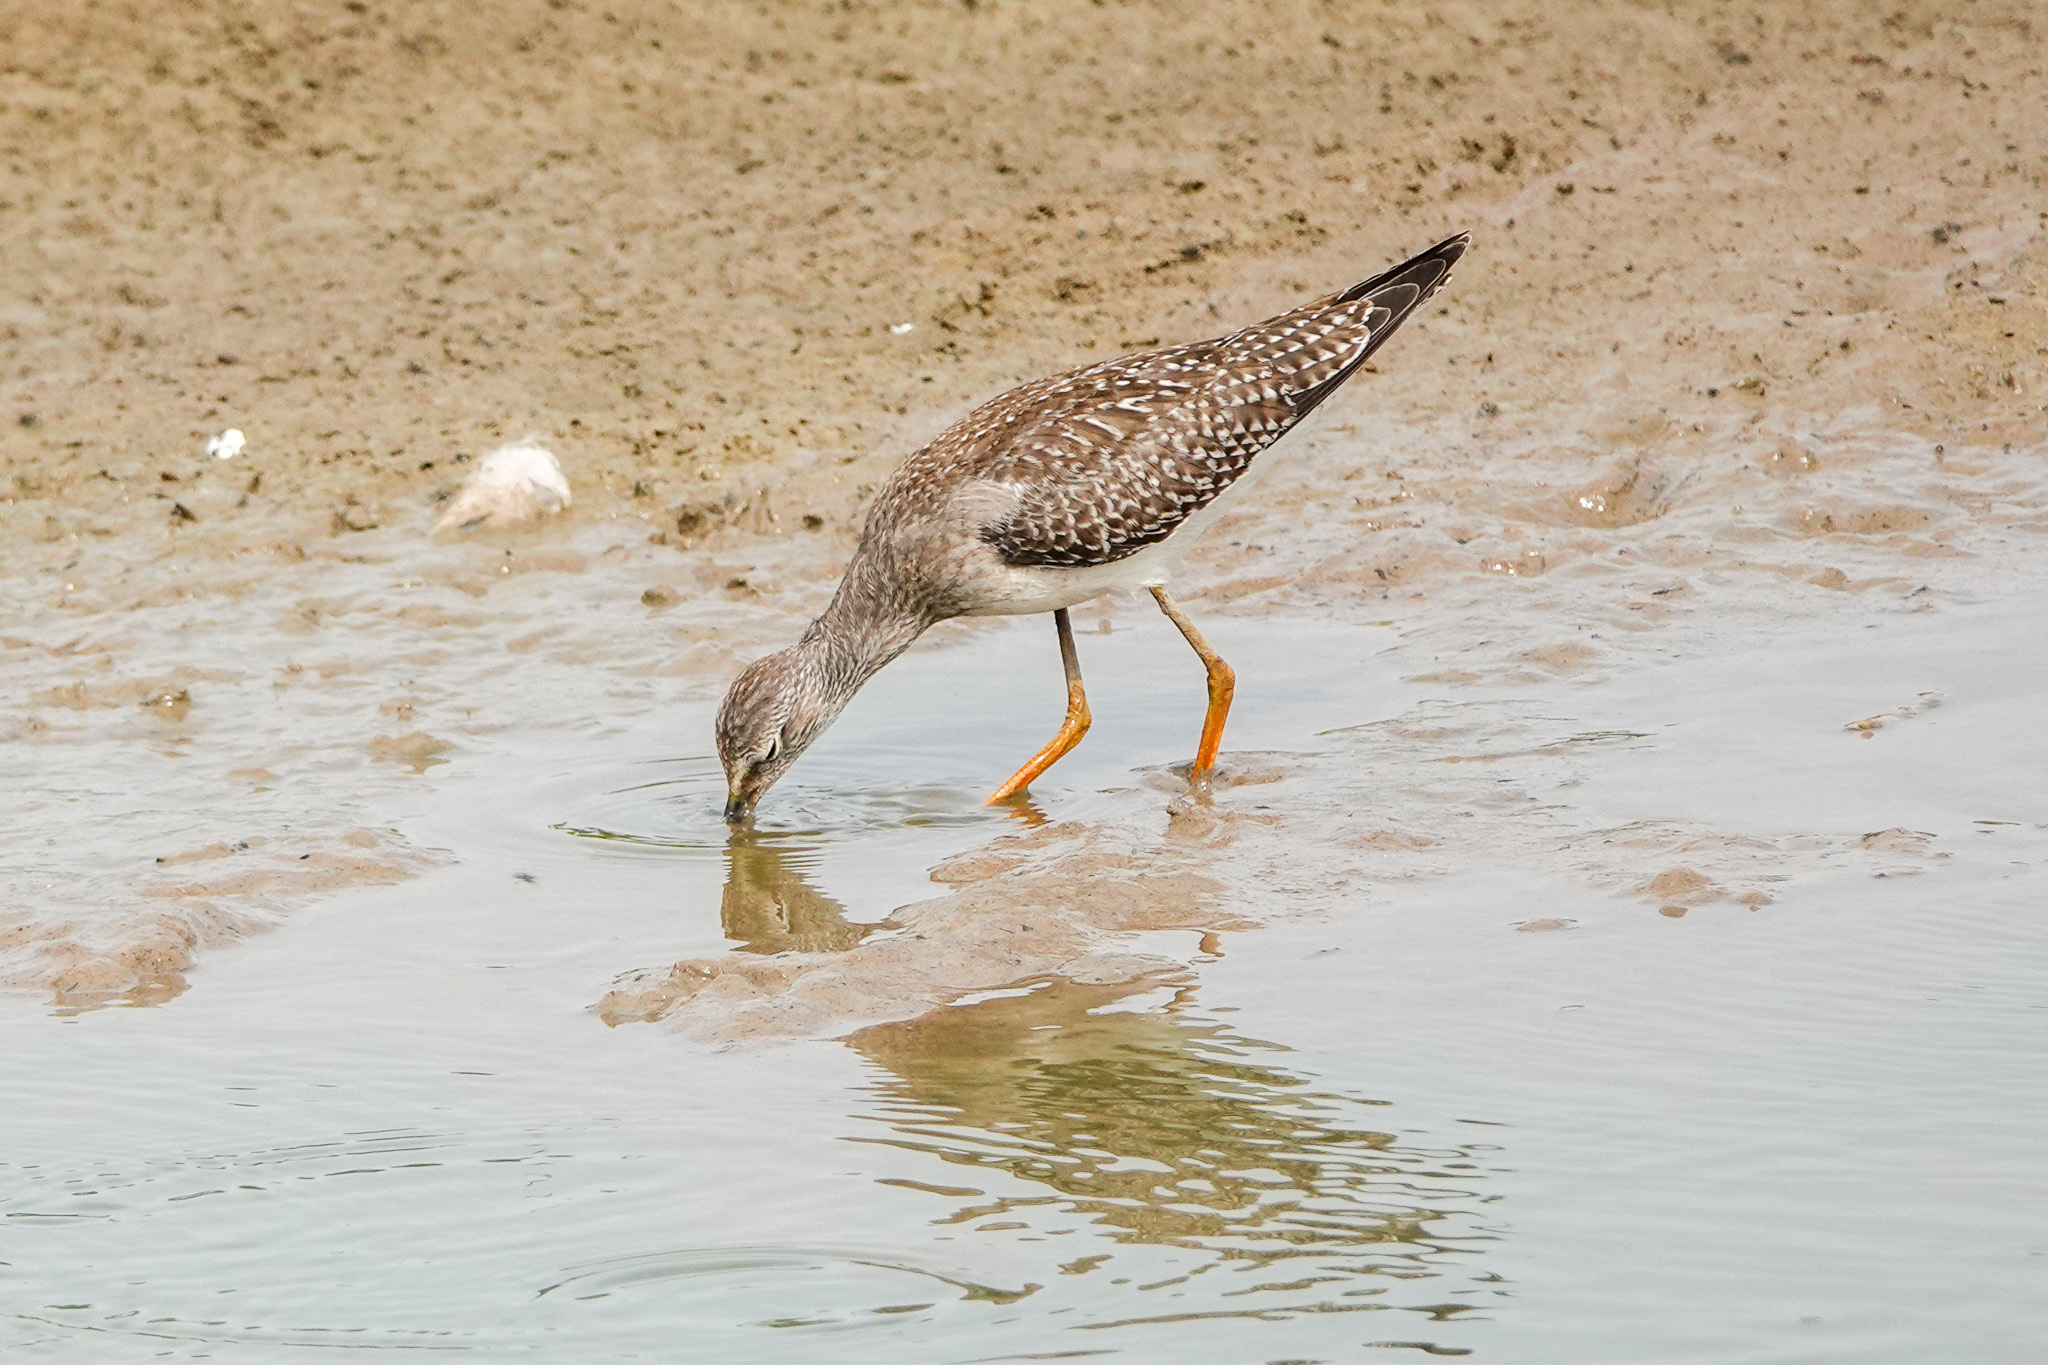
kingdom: Animalia
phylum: Chordata
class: Aves
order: Charadriiformes
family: Scolopacidae
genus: Tringa
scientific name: Tringa flavipes
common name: Lesser yellowlegs
